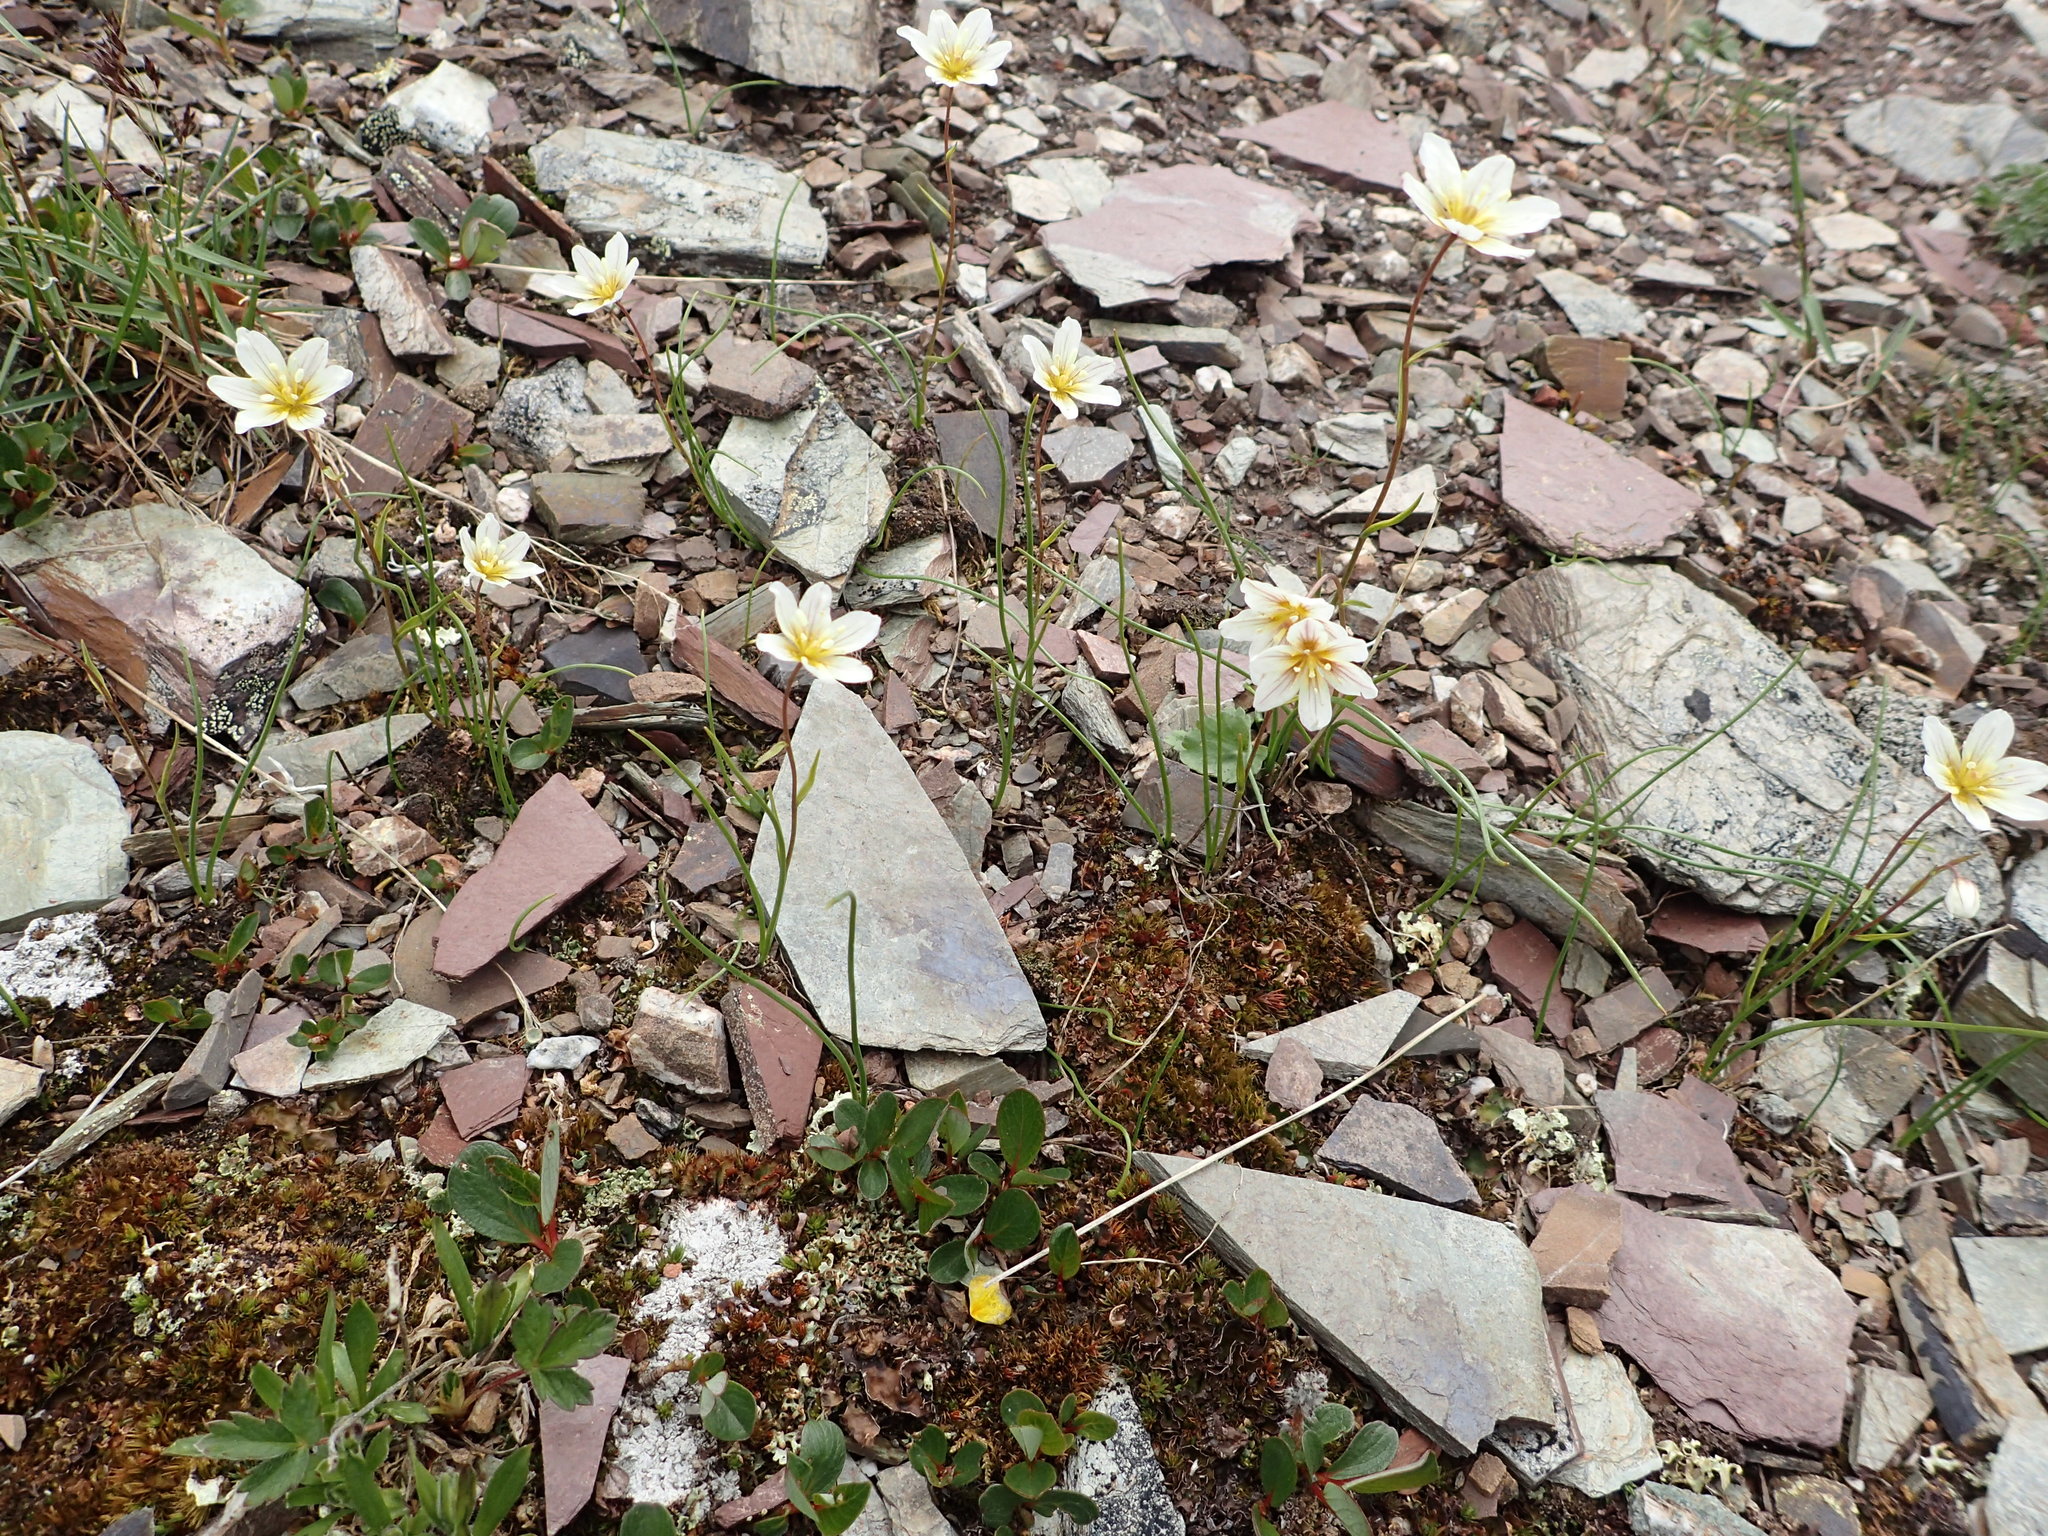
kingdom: Plantae
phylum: Tracheophyta
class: Liliopsida
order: Liliales
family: Liliaceae
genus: Gagea
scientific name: Gagea serotina
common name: Snowdon lily
